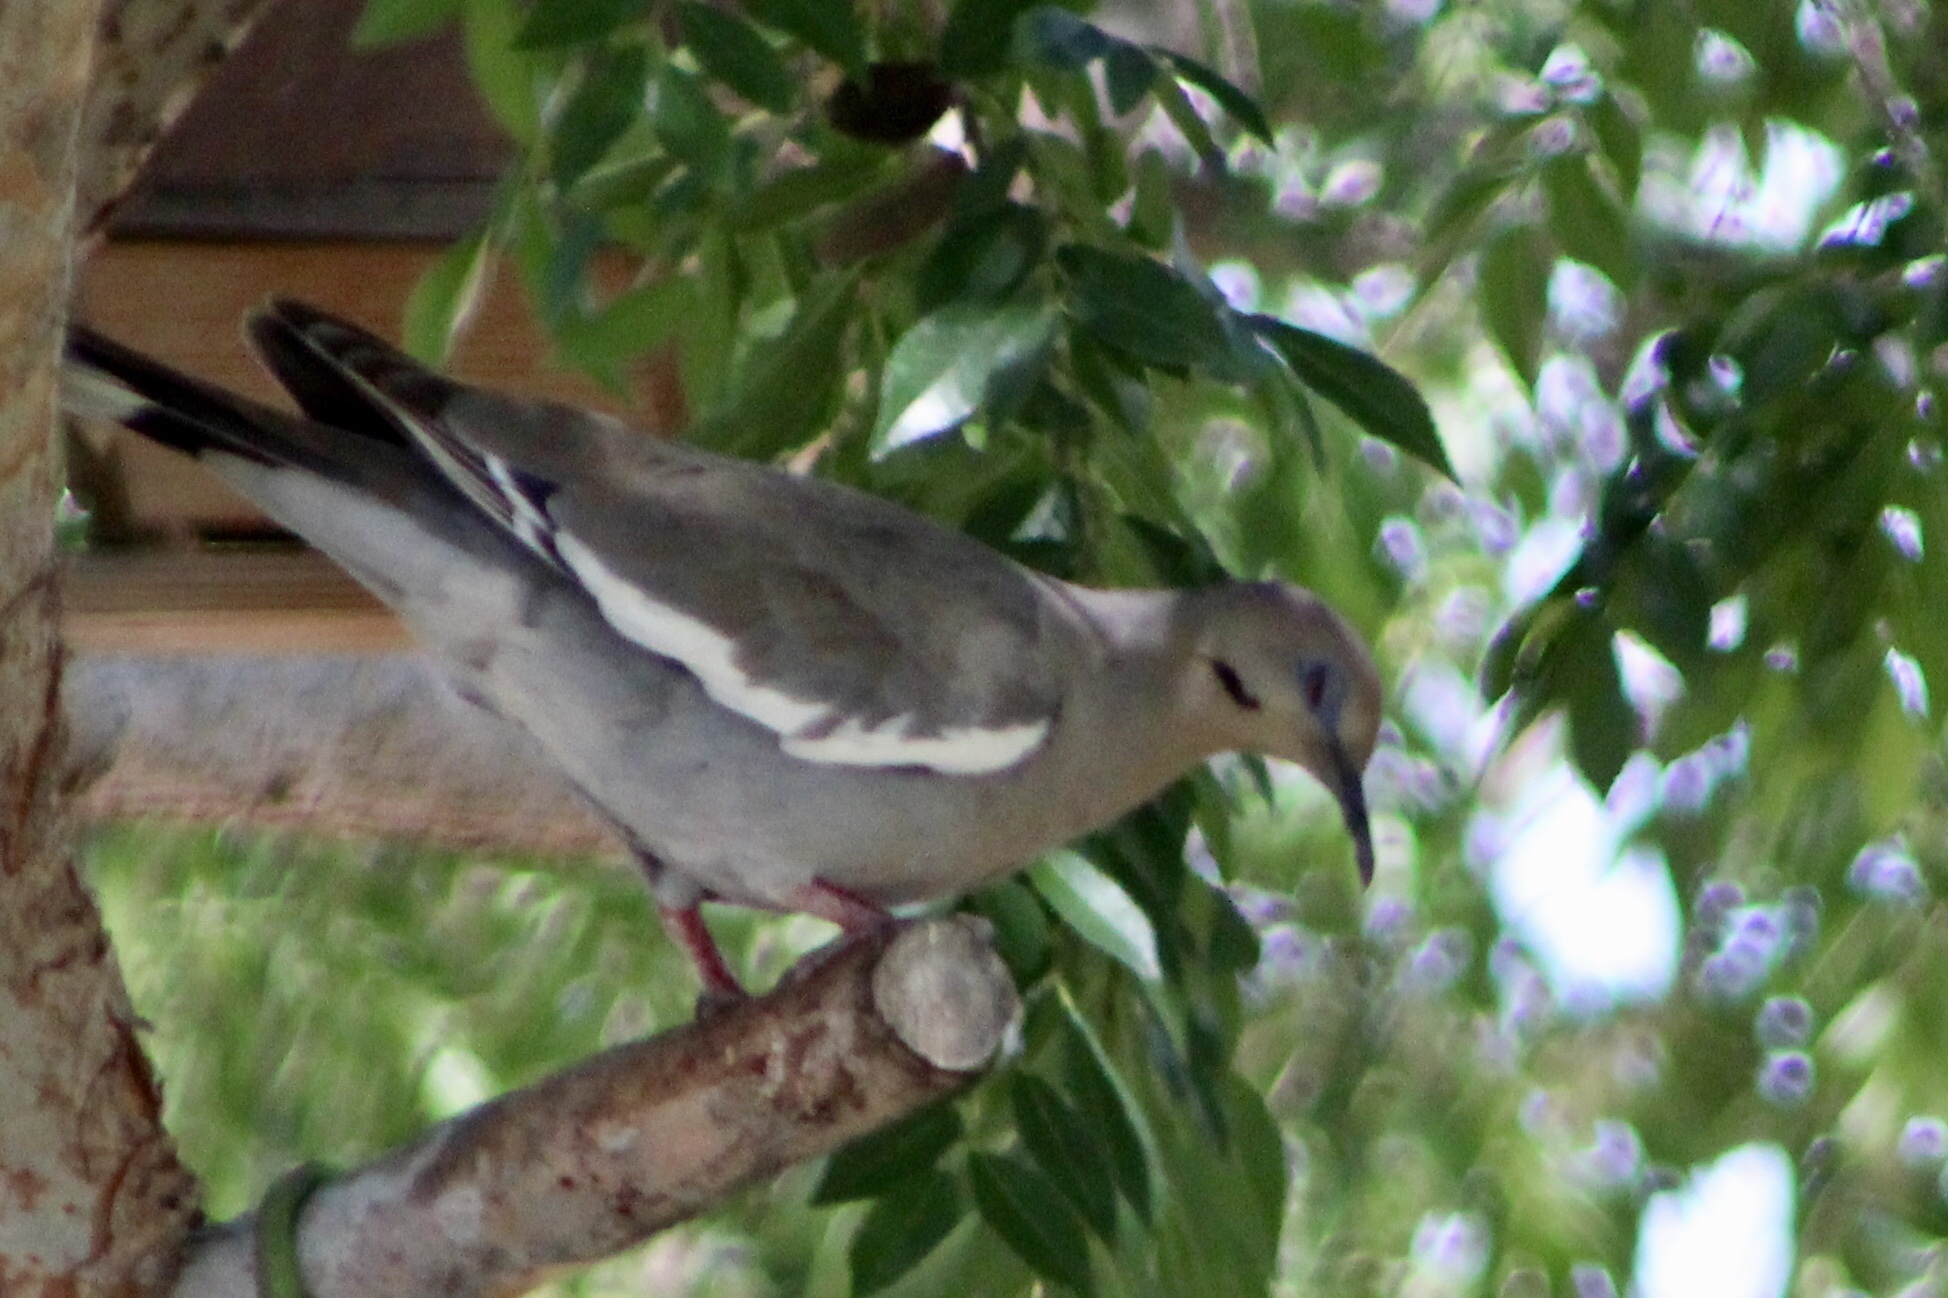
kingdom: Animalia
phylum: Chordata
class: Aves
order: Columbiformes
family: Columbidae
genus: Zenaida
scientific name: Zenaida asiatica
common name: White-winged dove
